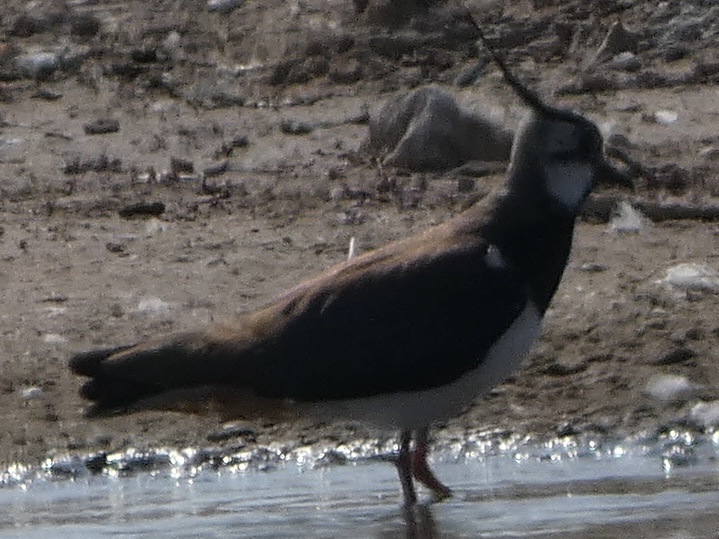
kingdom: Animalia
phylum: Chordata
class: Aves
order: Charadriiformes
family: Charadriidae
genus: Vanellus
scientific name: Vanellus vanellus
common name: Northern lapwing
